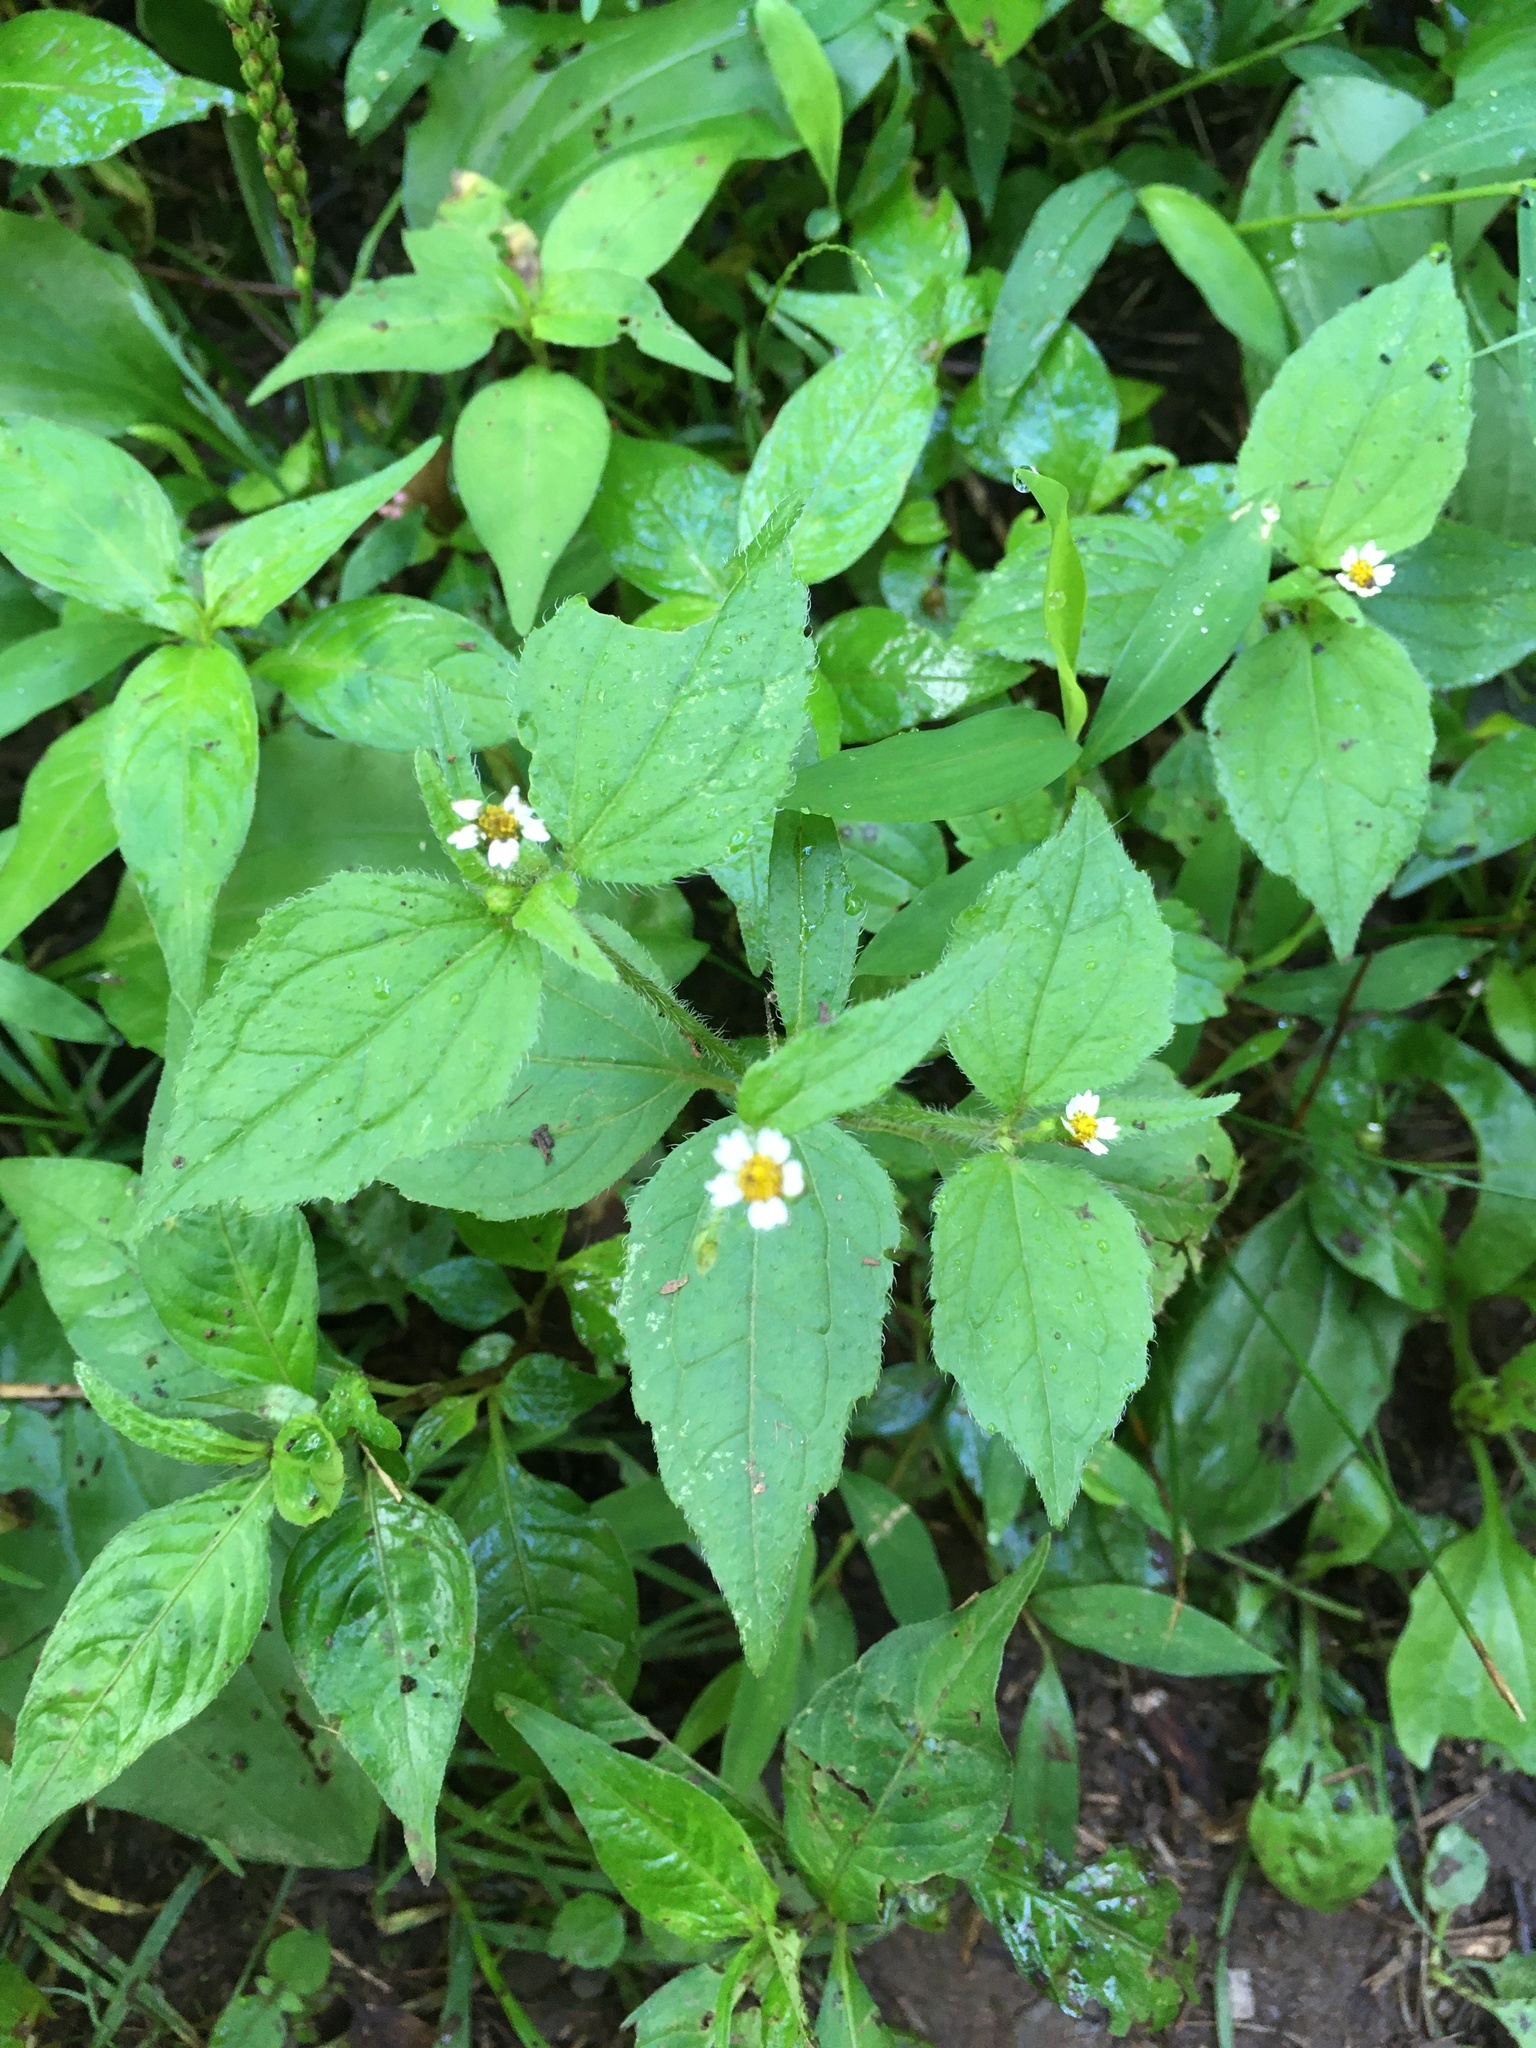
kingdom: Plantae
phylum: Tracheophyta
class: Magnoliopsida
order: Asterales
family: Asteraceae
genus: Galinsoga
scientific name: Galinsoga quadriradiata
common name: Shaggy soldier
